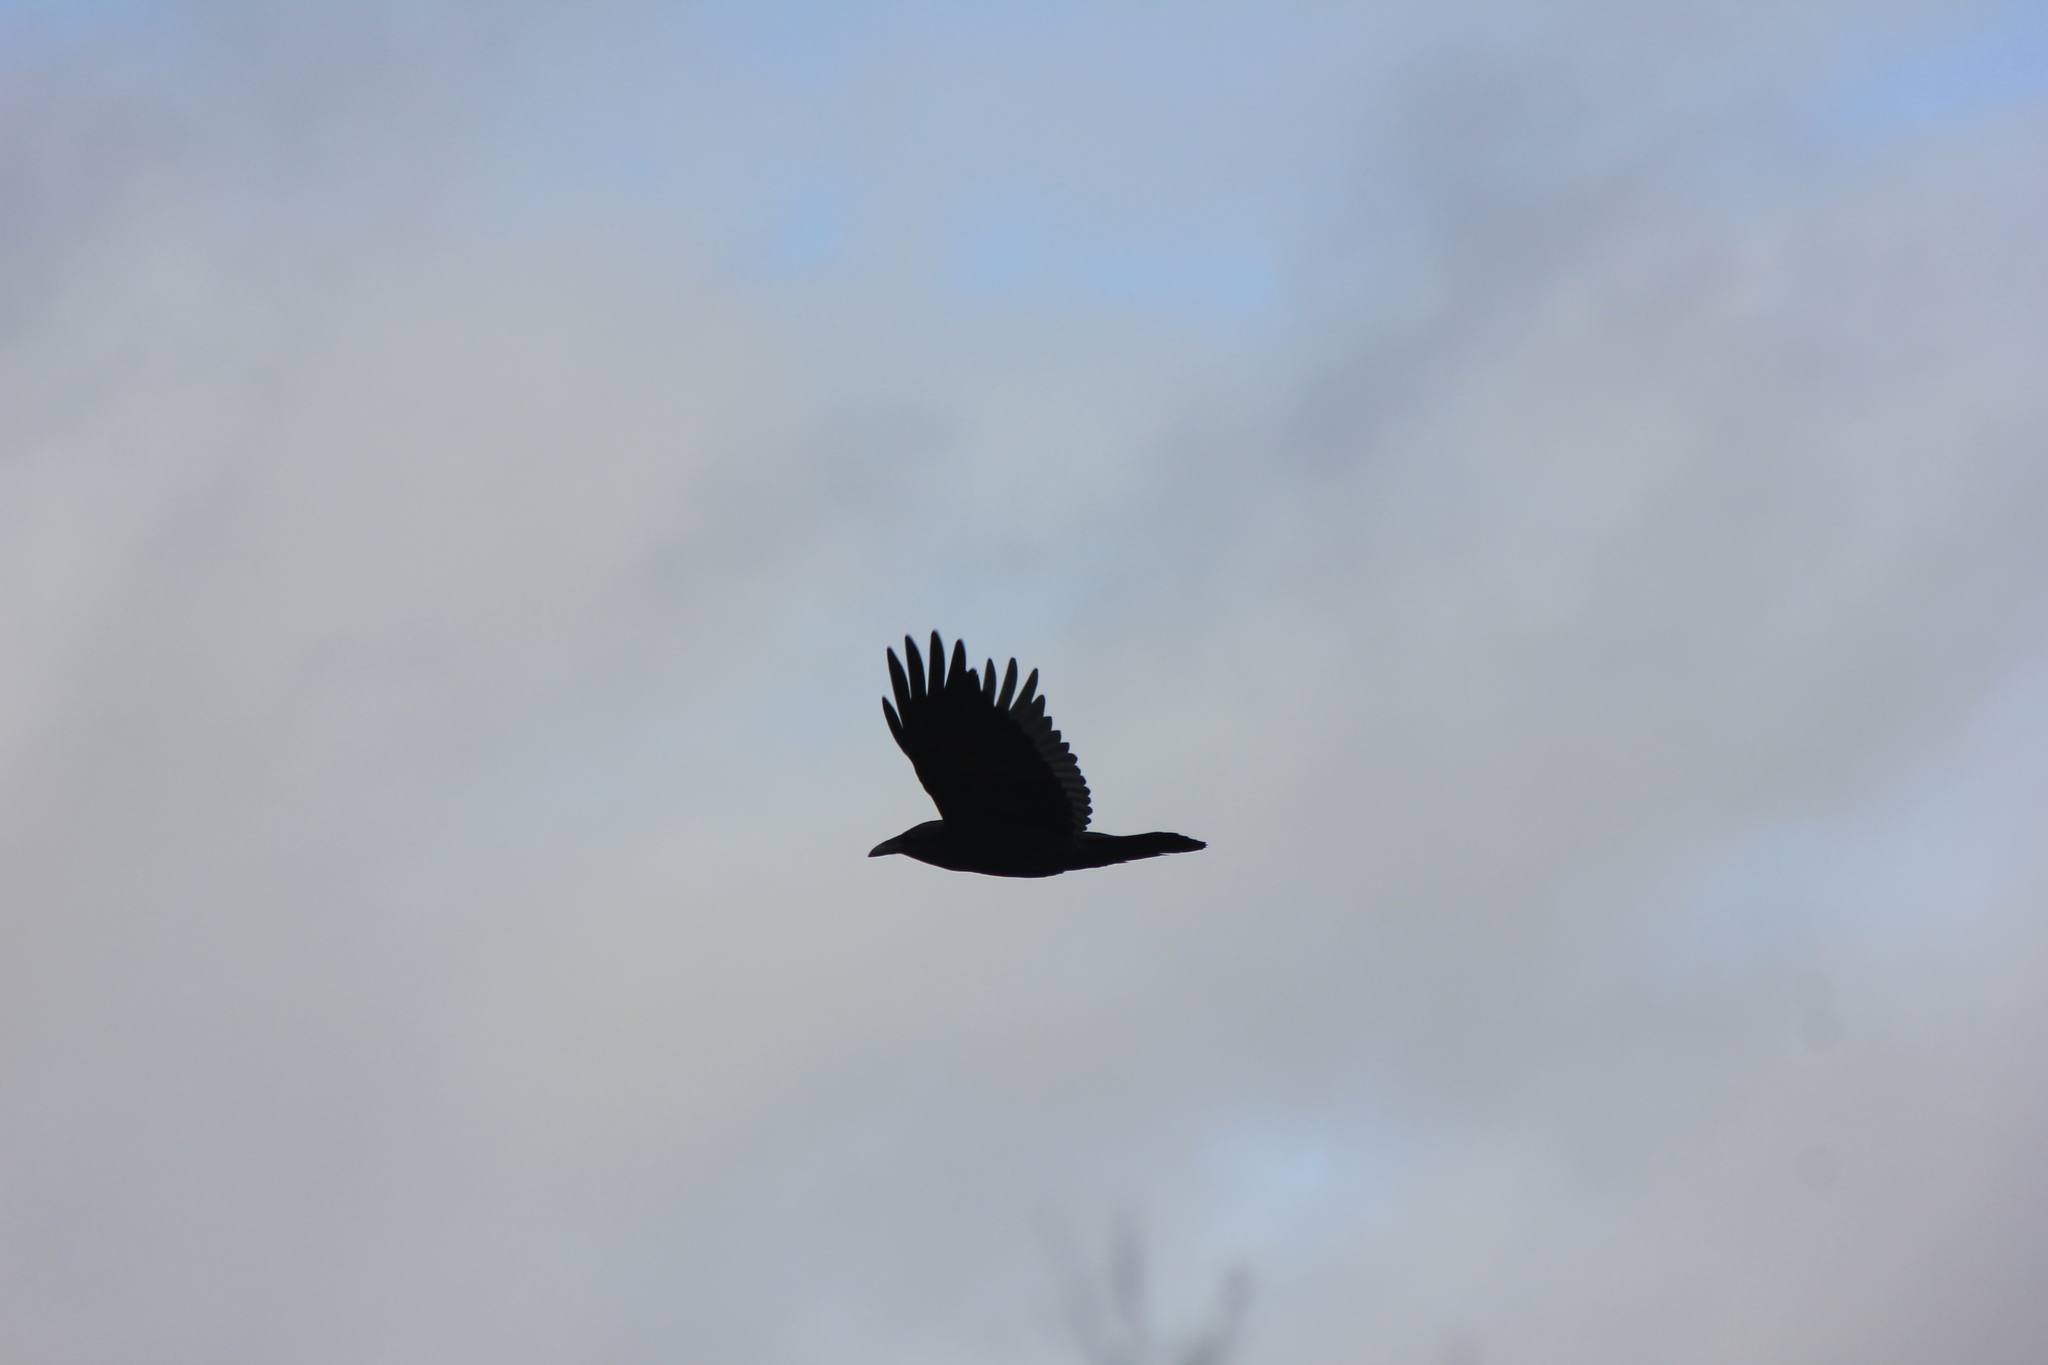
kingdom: Animalia
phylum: Chordata
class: Aves
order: Passeriformes
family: Corvidae
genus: Corvus
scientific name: Corvus corax
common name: Common raven
